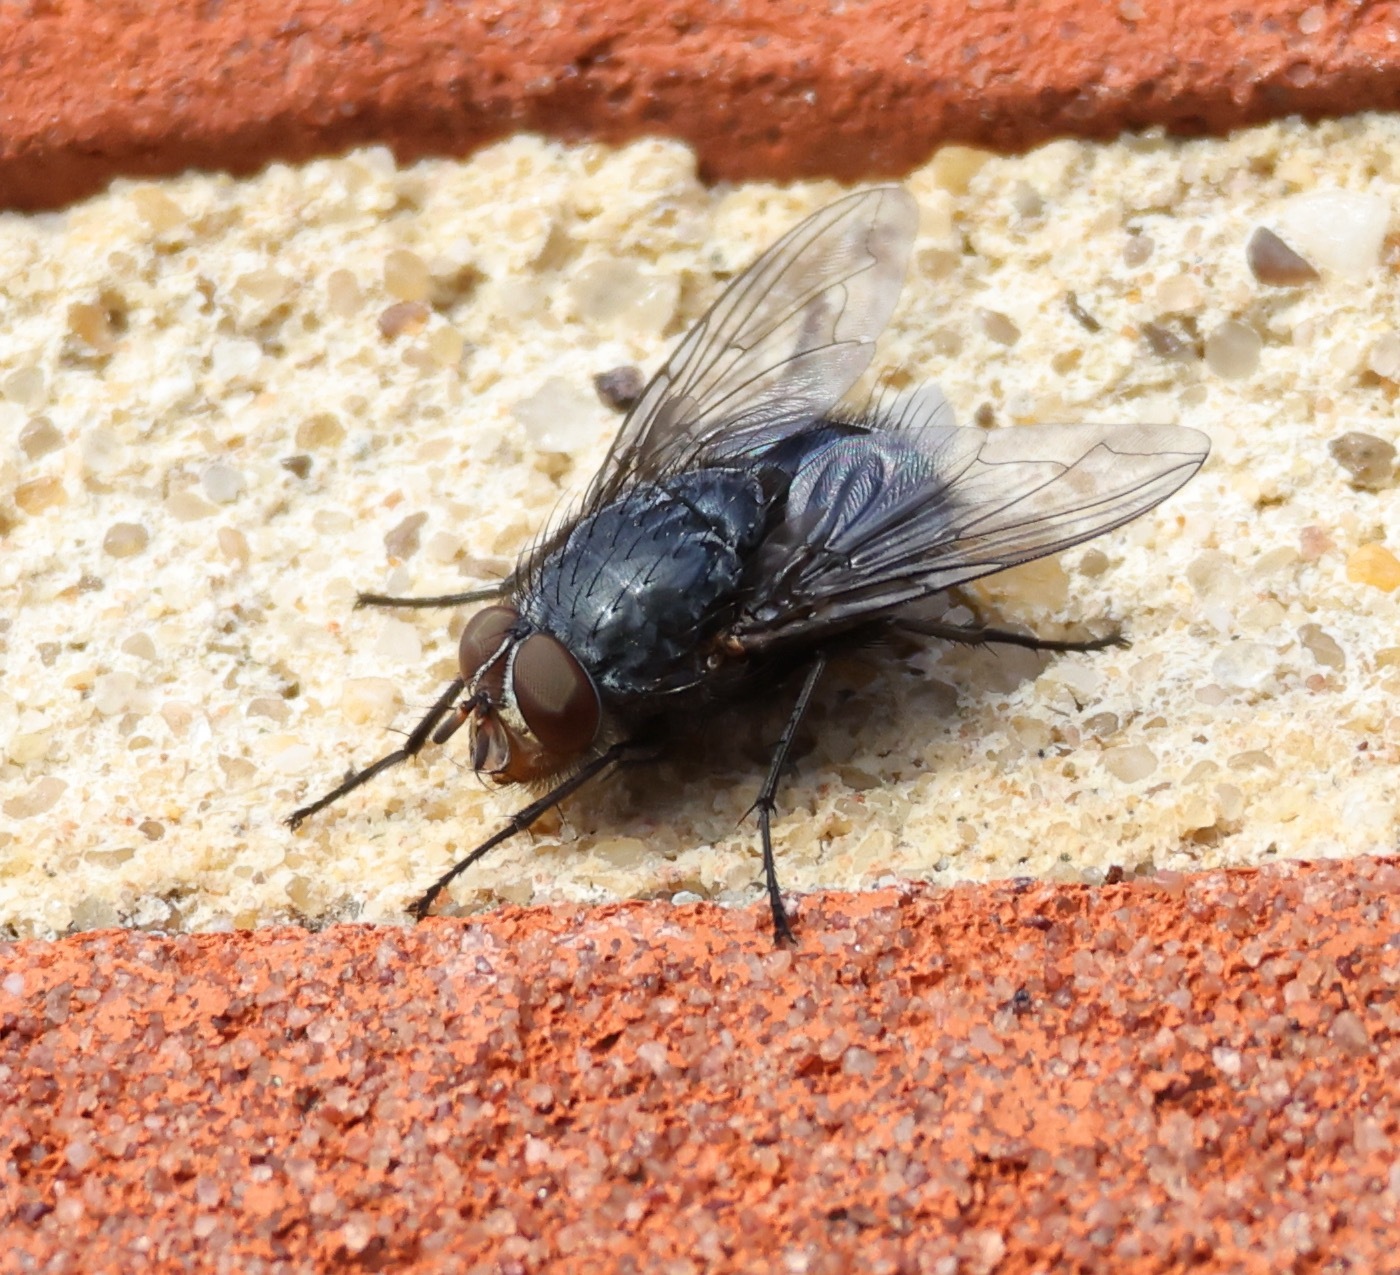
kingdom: Animalia
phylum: Arthropoda
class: Insecta
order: Diptera
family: Calliphoridae
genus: Calliphora
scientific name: Calliphora vicina
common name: Common blow flie
